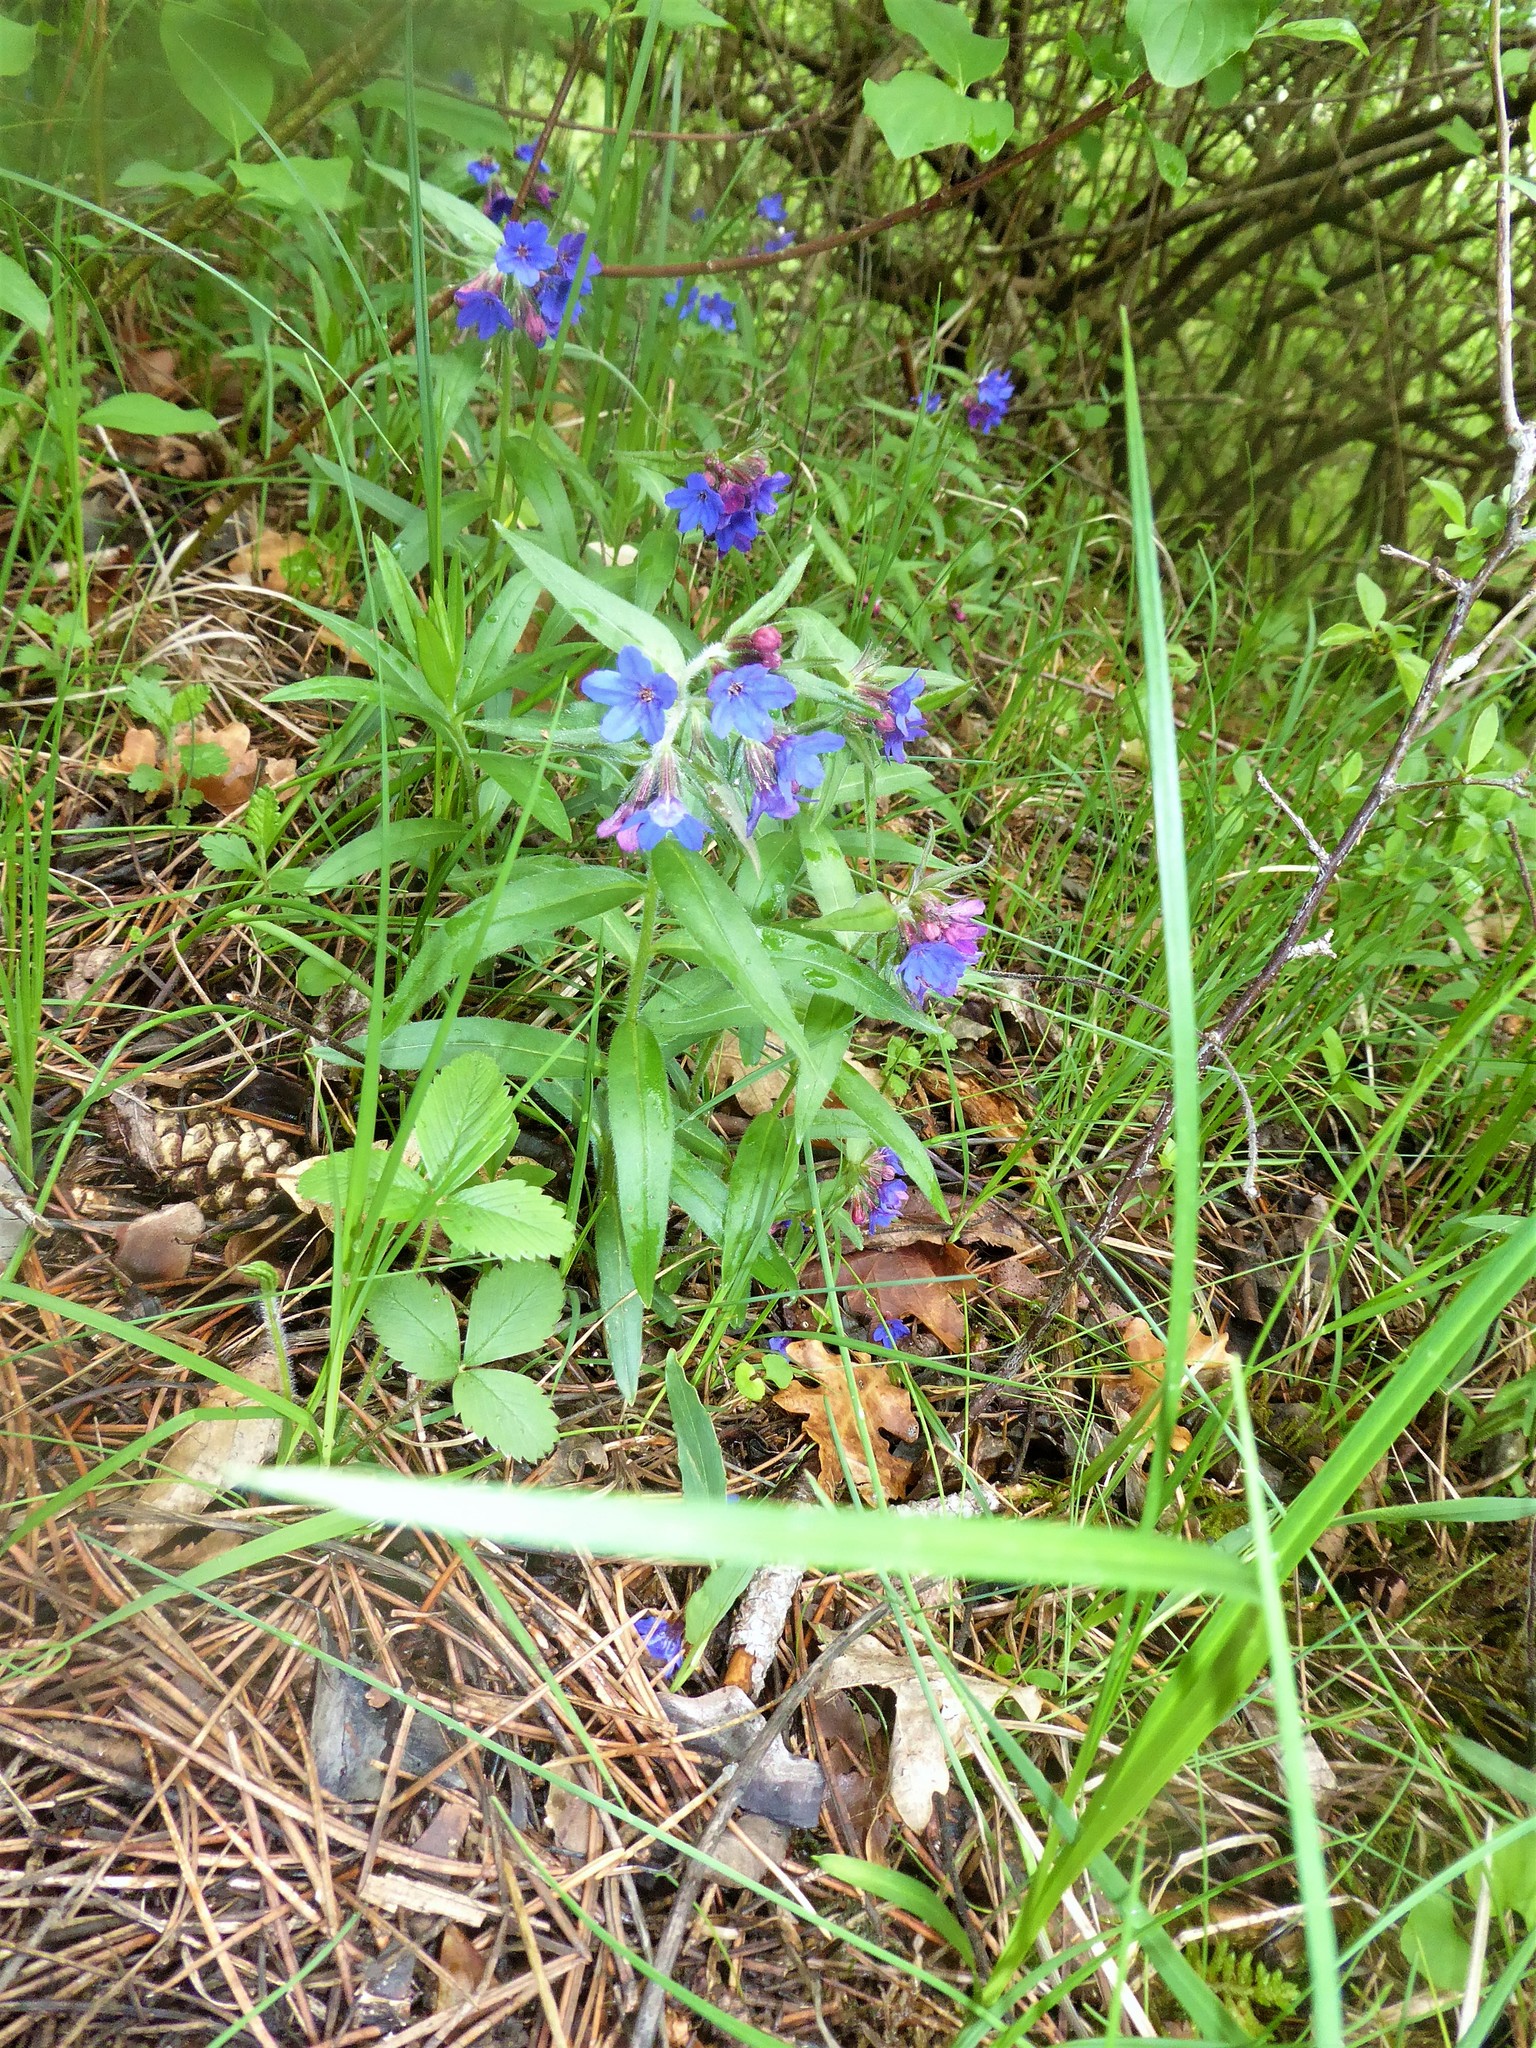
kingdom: Plantae
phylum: Tracheophyta
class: Magnoliopsida
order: Boraginales
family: Boraginaceae
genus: Aegonychon
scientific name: Aegonychon purpurocaeruleum
